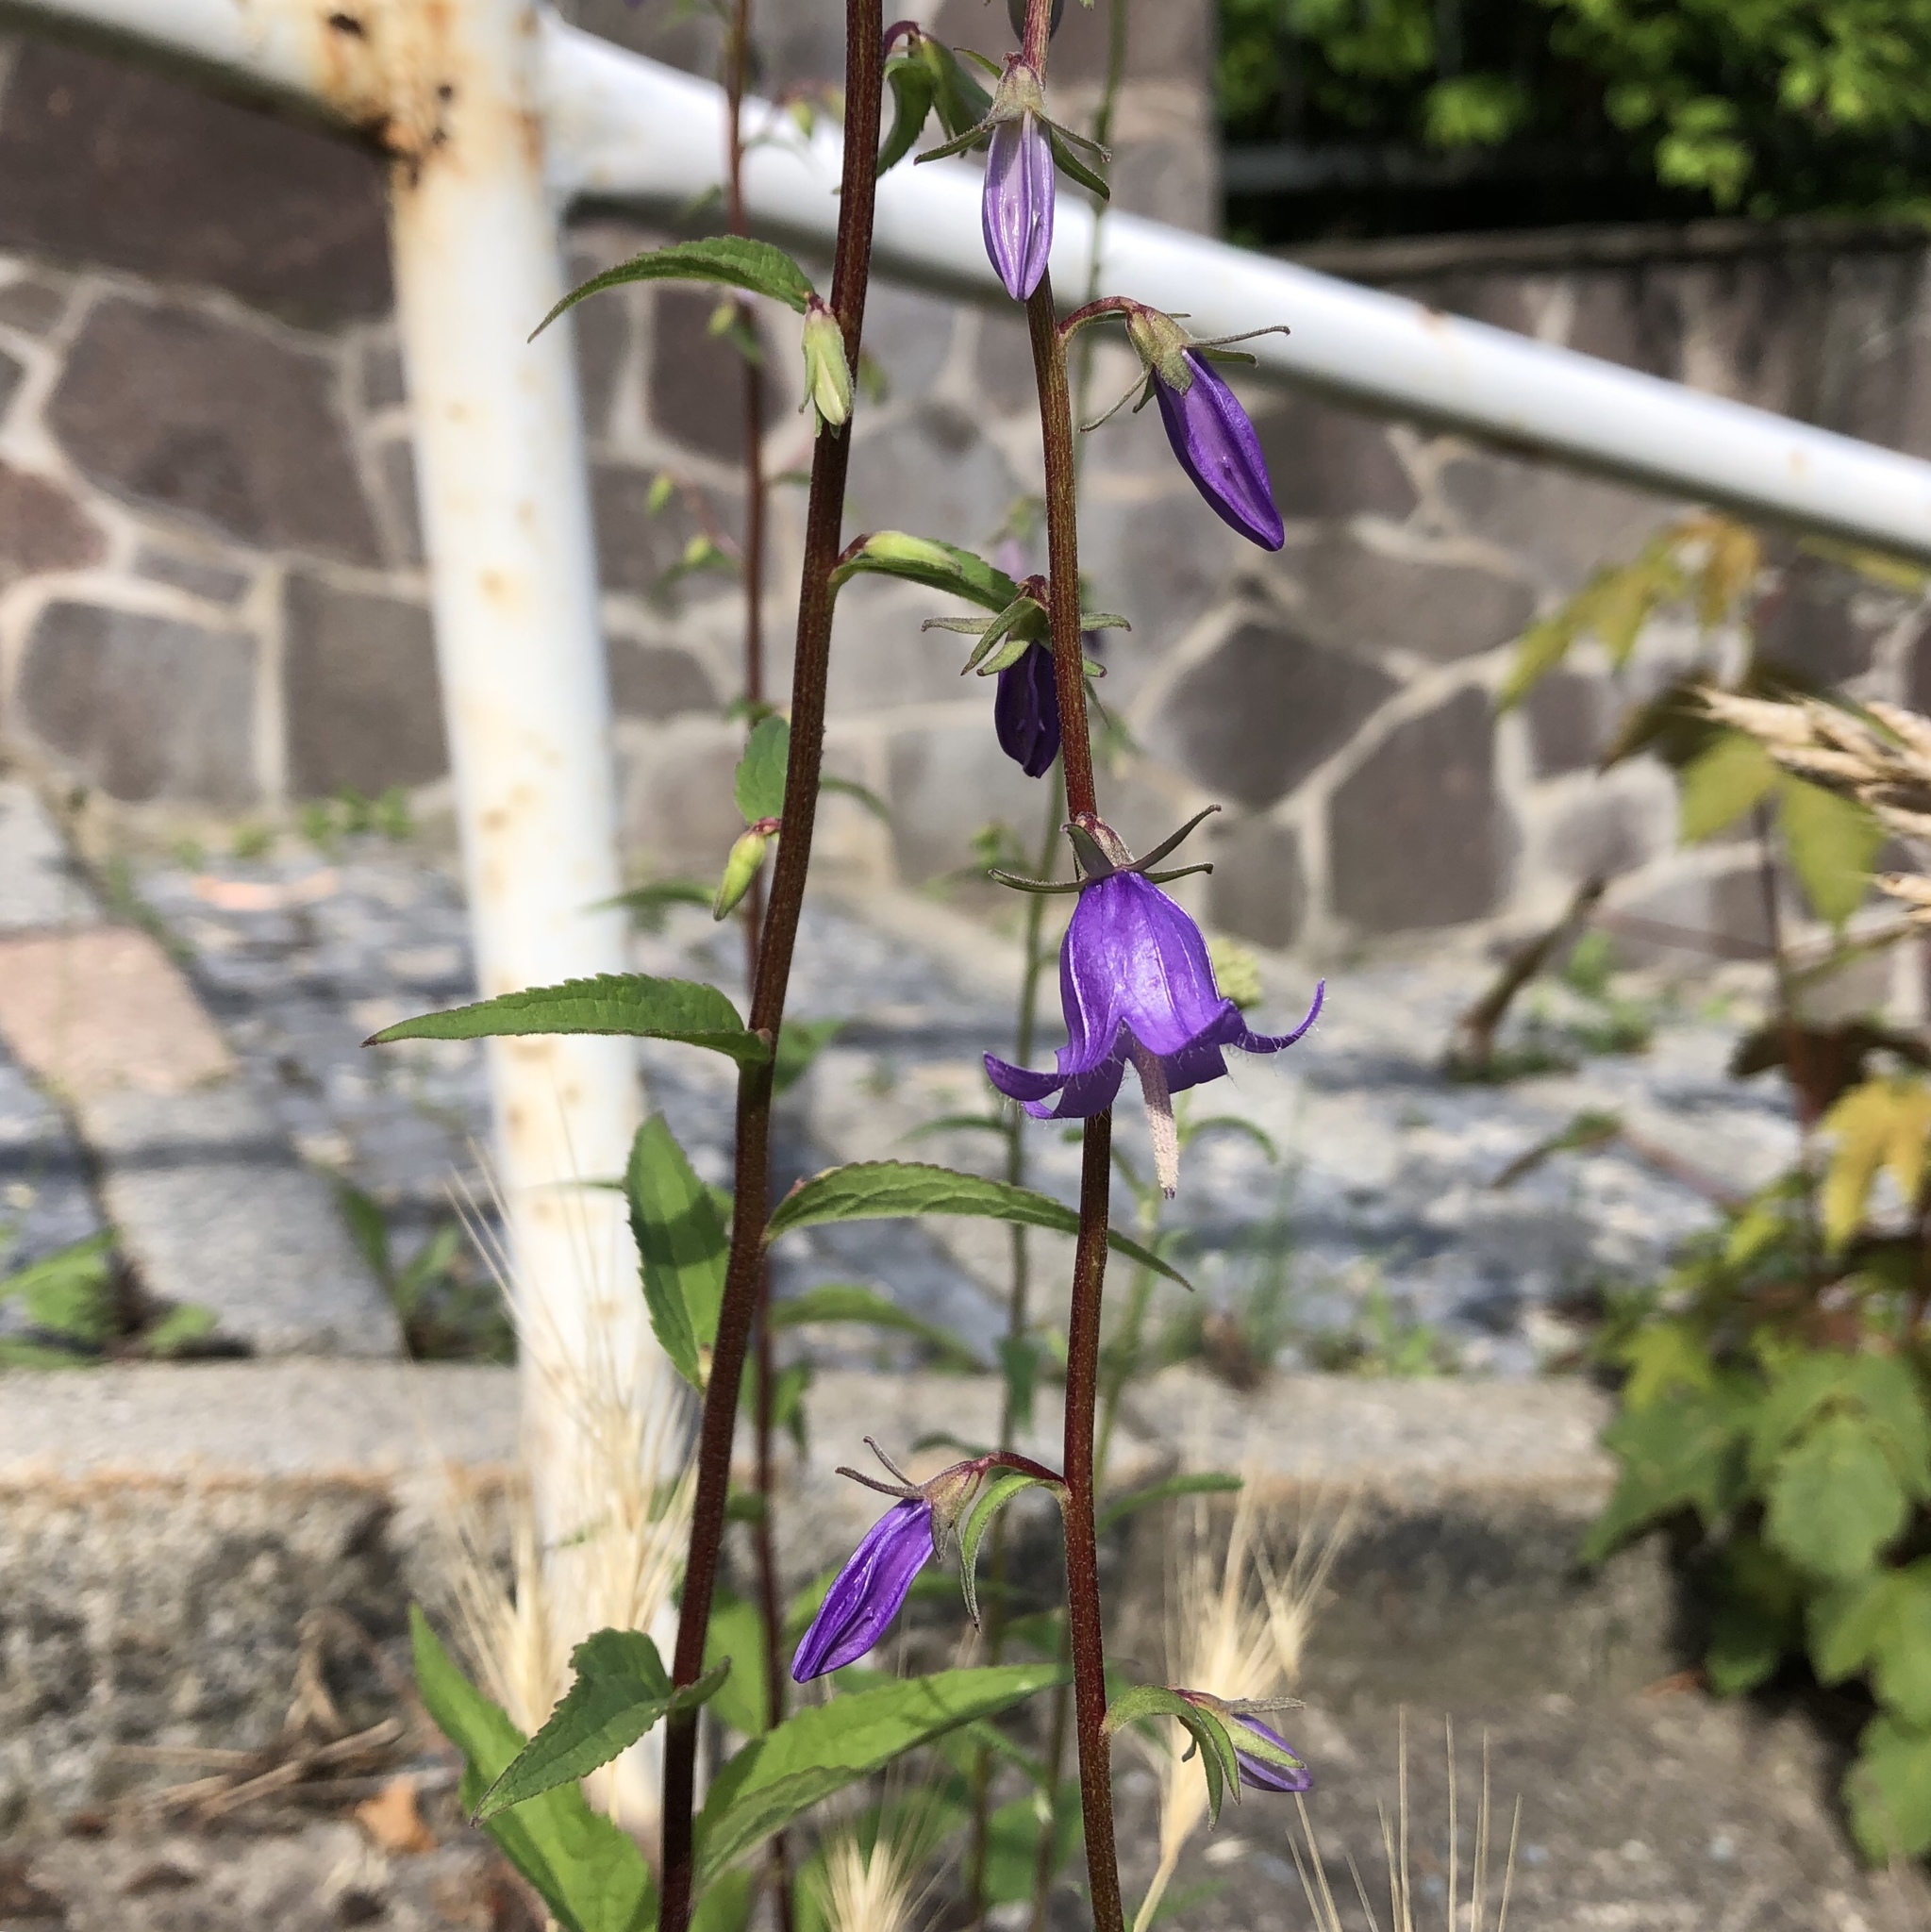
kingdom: Plantae
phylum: Tracheophyta
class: Magnoliopsida
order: Asterales
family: Campanulaceae
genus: Campanula
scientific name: Campanula rapunculoides
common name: Creeping bellflower
